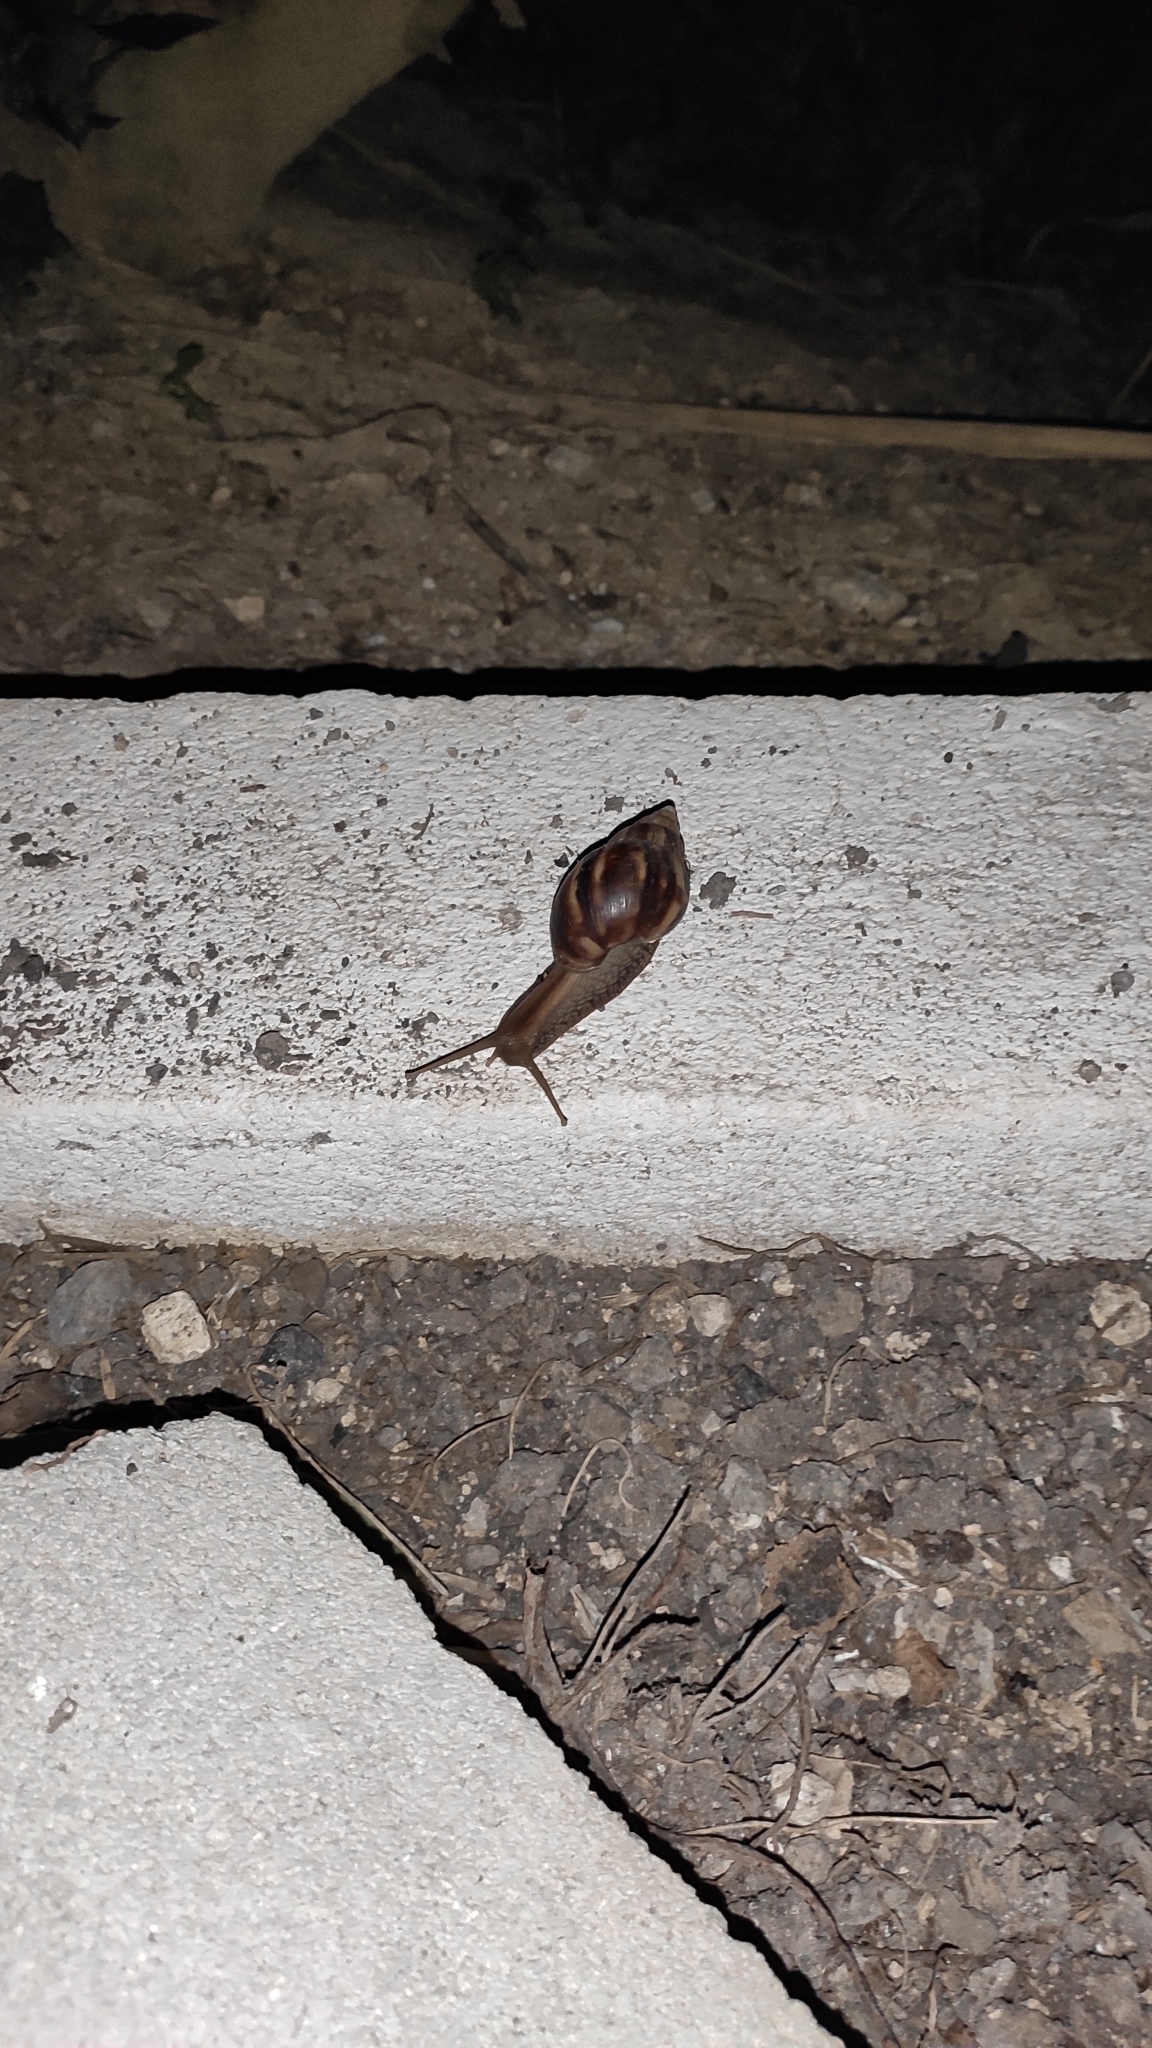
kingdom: Animalia
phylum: Mollusca
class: Gastropoda
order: Stylommatophora
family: Achatinidae
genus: Lissachatina
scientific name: Lissachatina fulica
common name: Giant african snail
